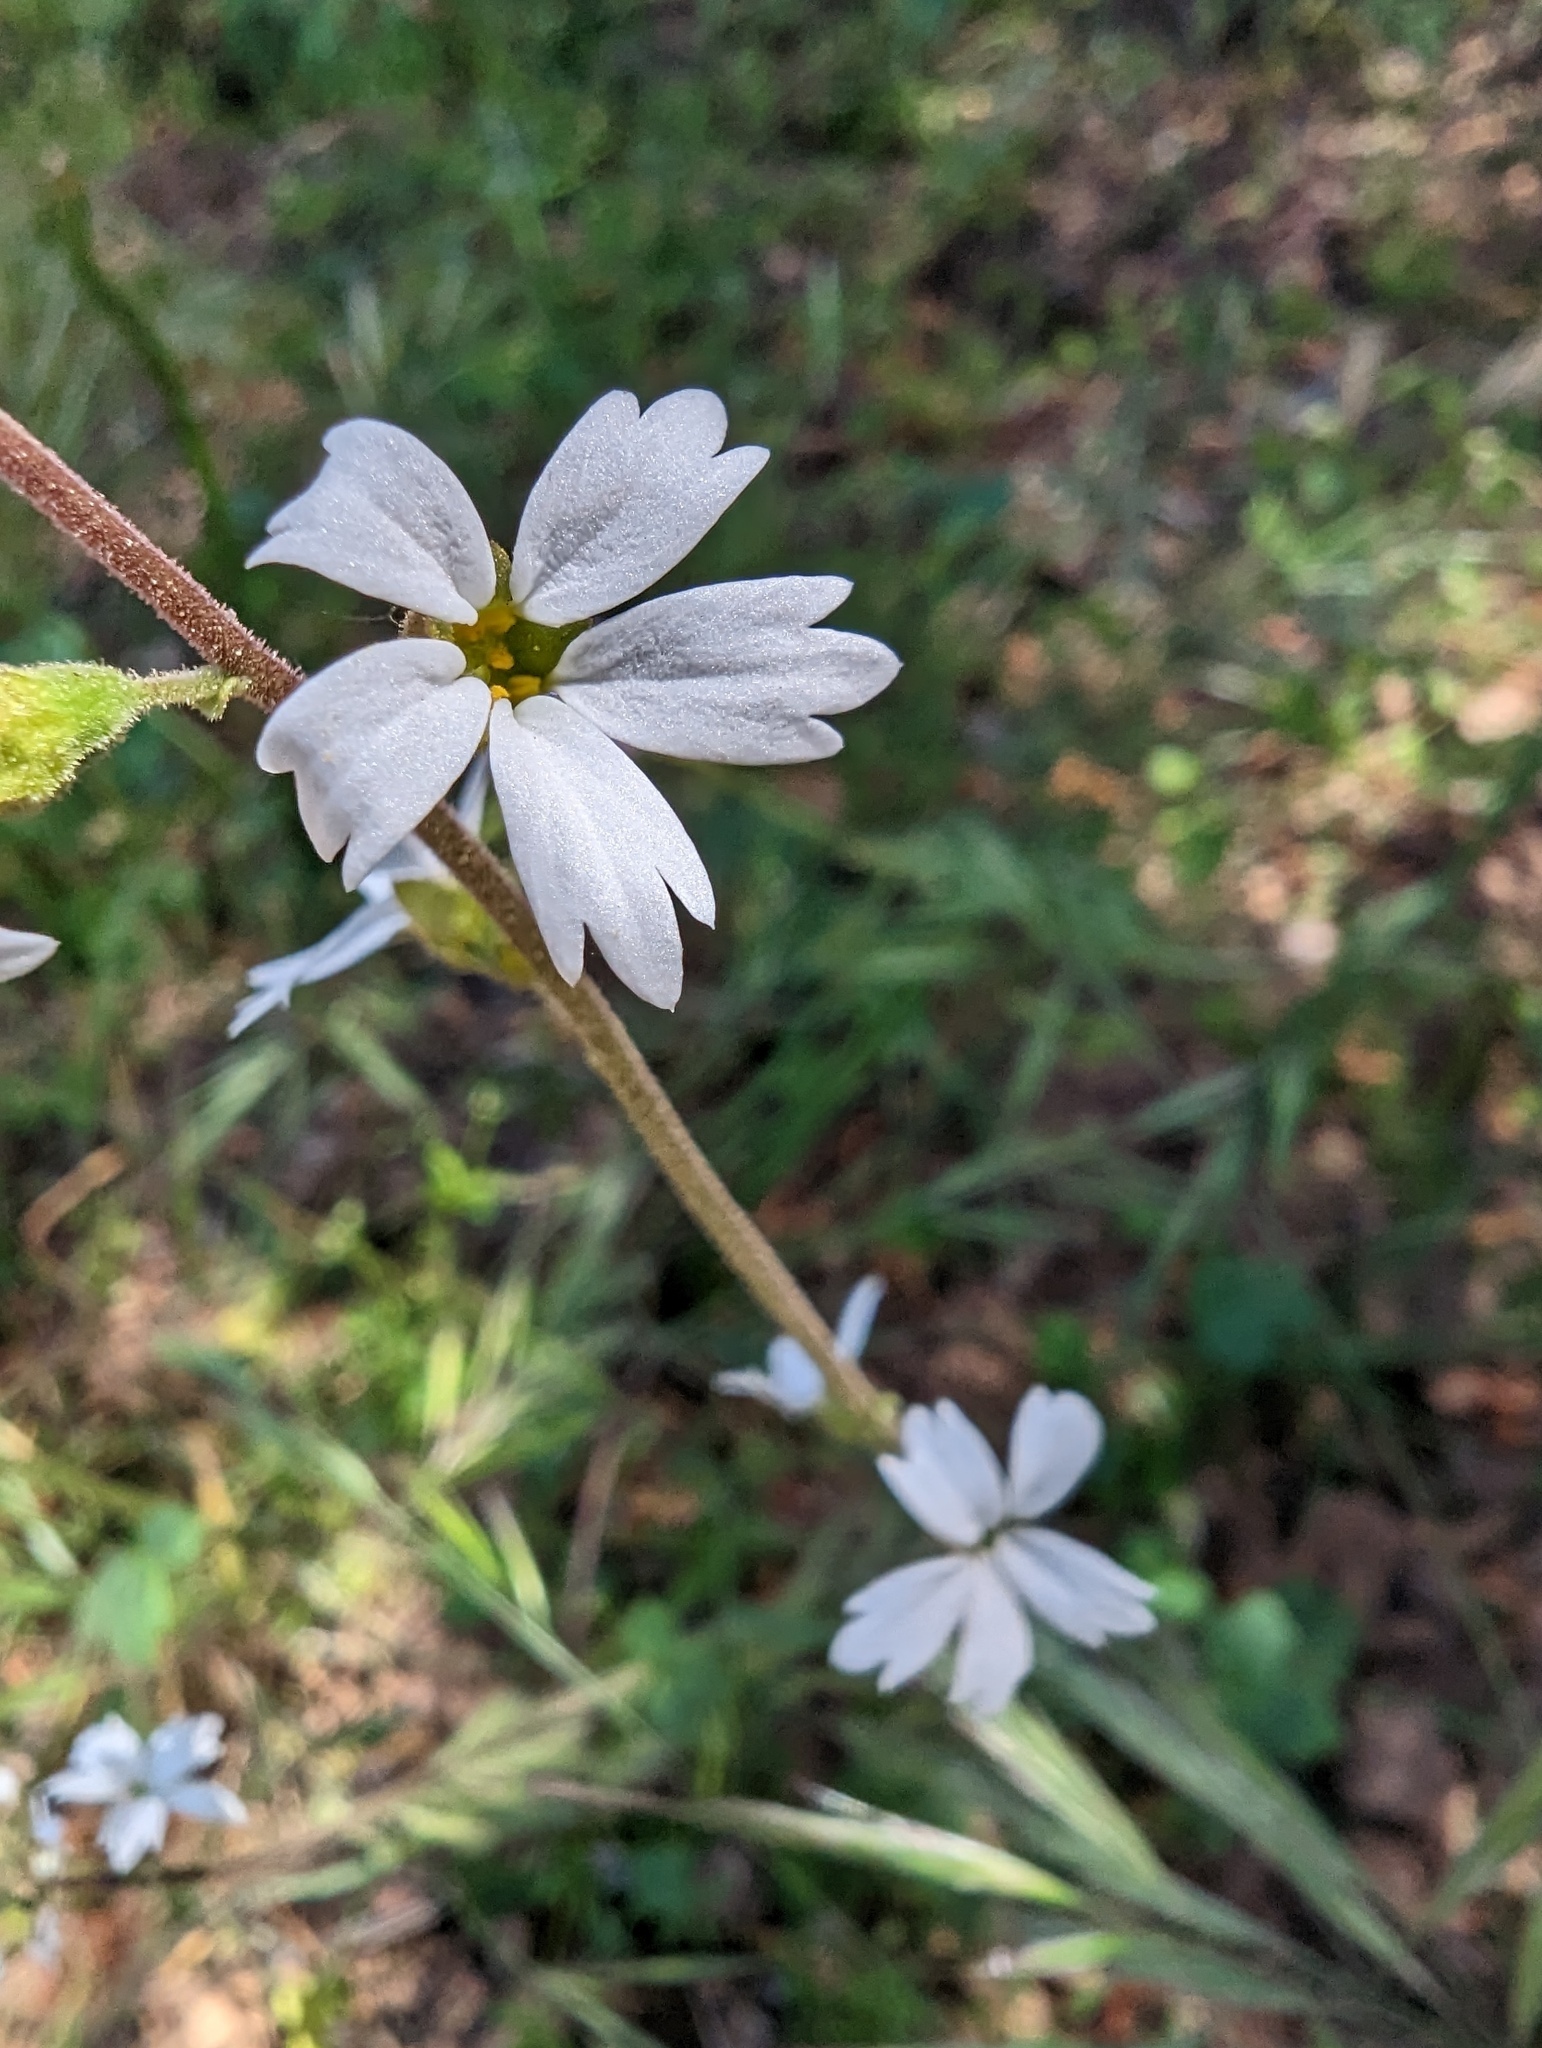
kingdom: Plantae
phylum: Tracheophyta
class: Magnoliopsida
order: Saxifragales
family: Saxifragaceae
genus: Lithophragma
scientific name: Lithophragma affine
